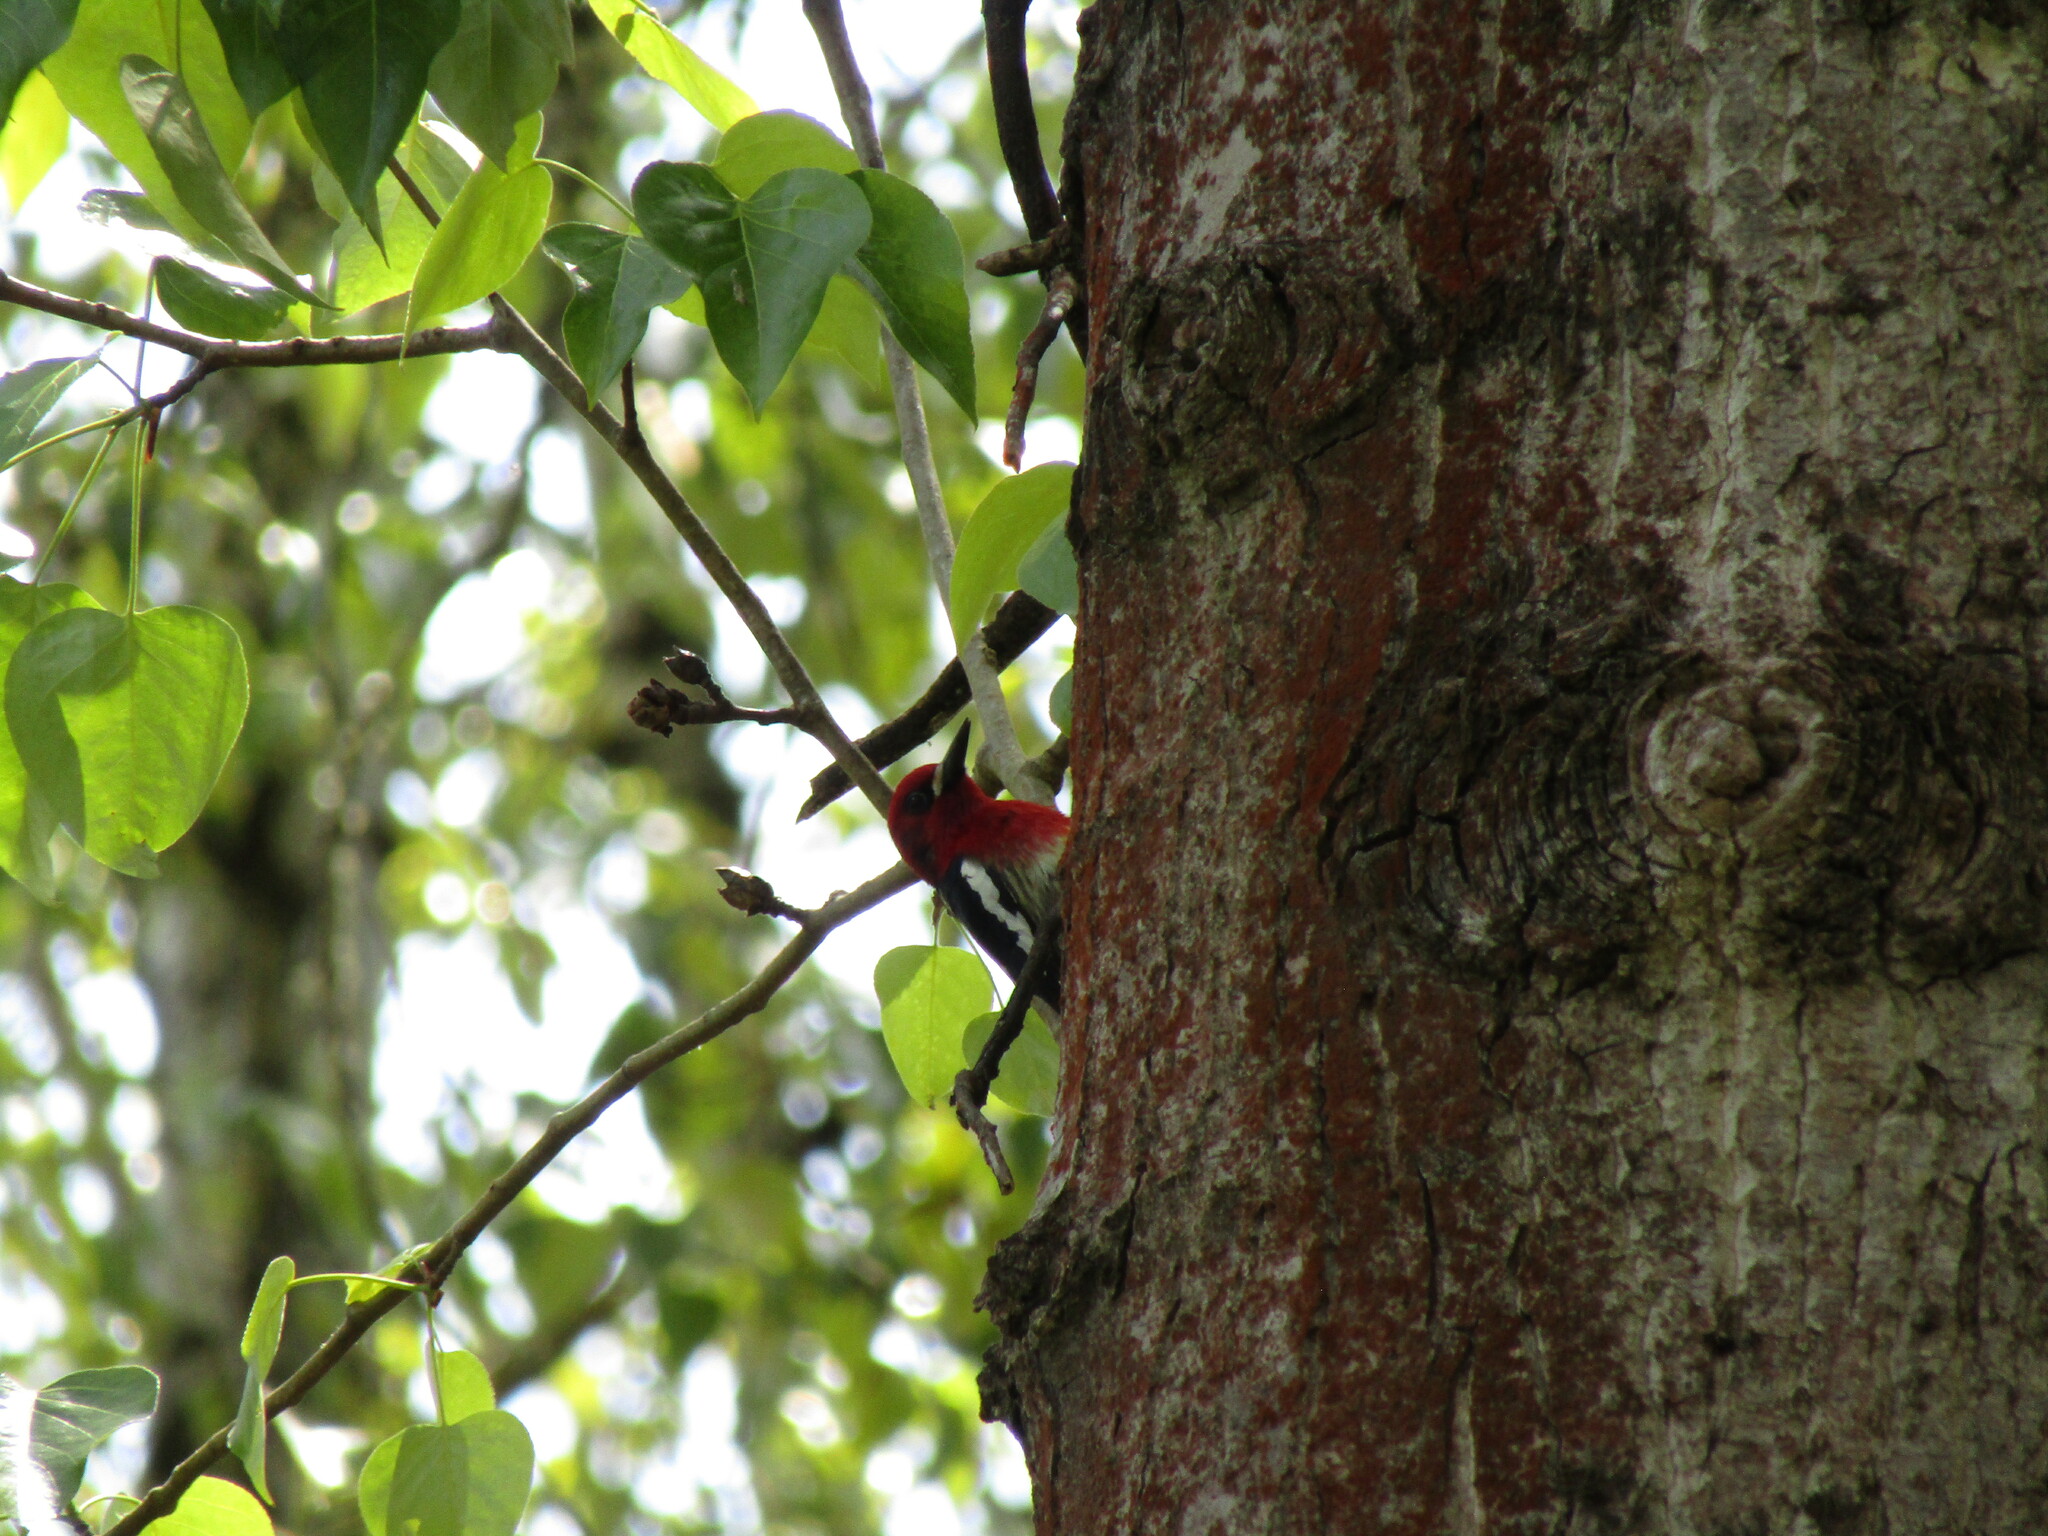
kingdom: Animalia
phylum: Chordata
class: Aves
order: Piciformes
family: Picidae
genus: Sphyrapicus
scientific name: Sphyrapicus ruber
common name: Red-breasted sapsucker
